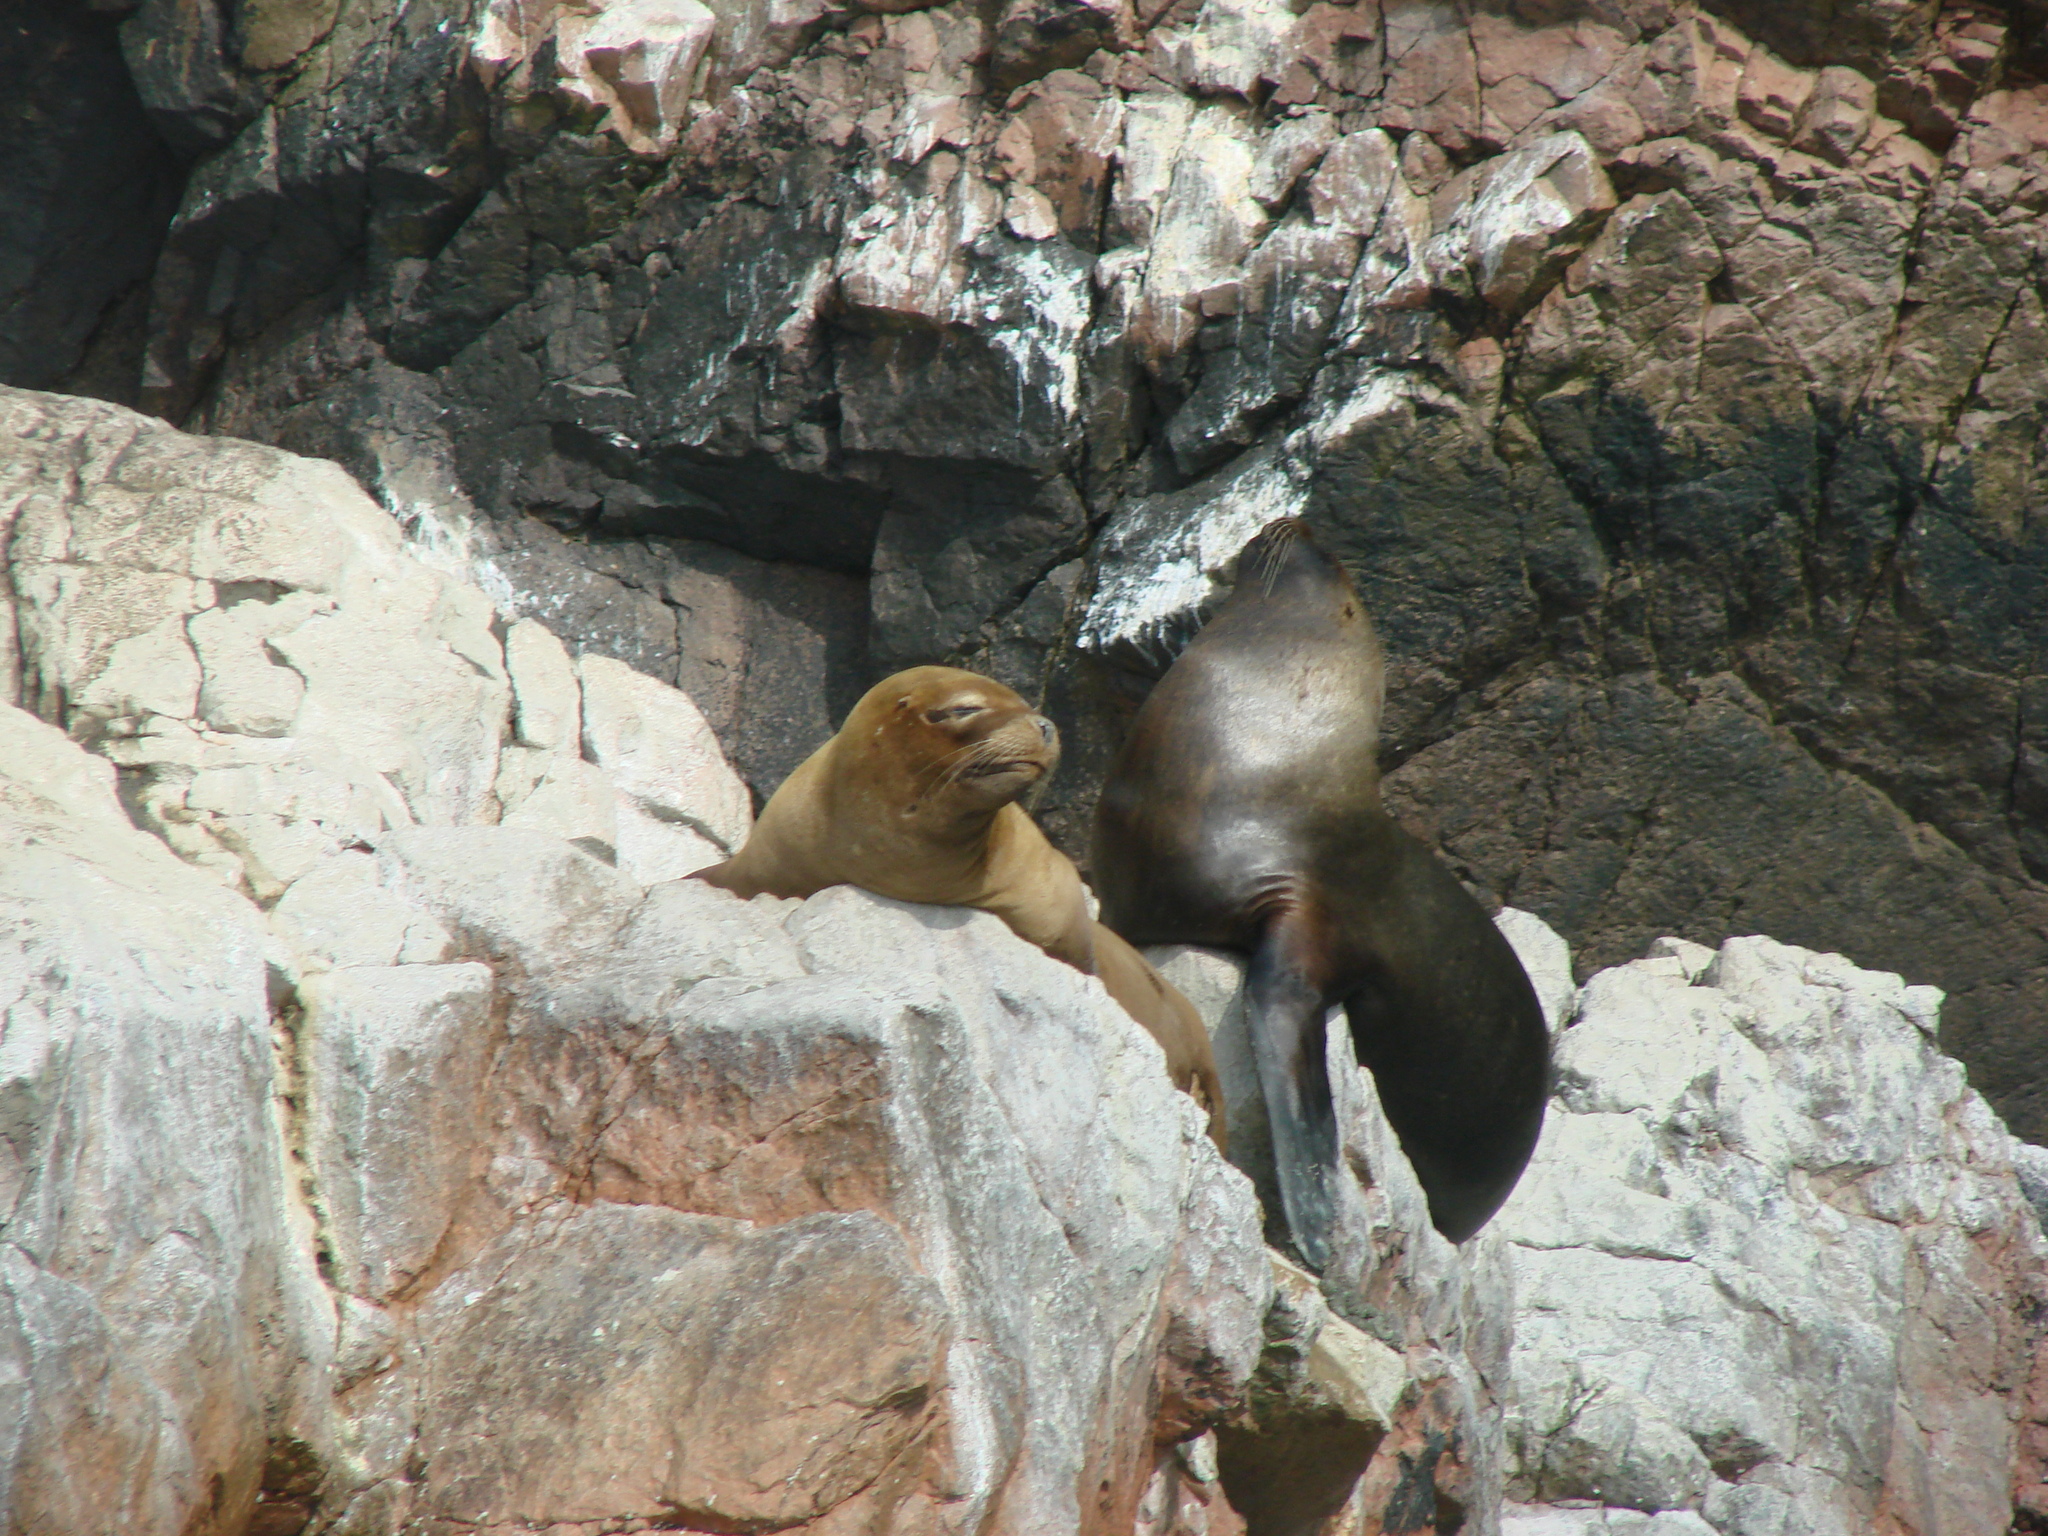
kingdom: Animalia
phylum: Chordata
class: Mammalia
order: Carnivora
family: Otariidae
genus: Otaria
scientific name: Otaria byronia
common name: South american sea lion
